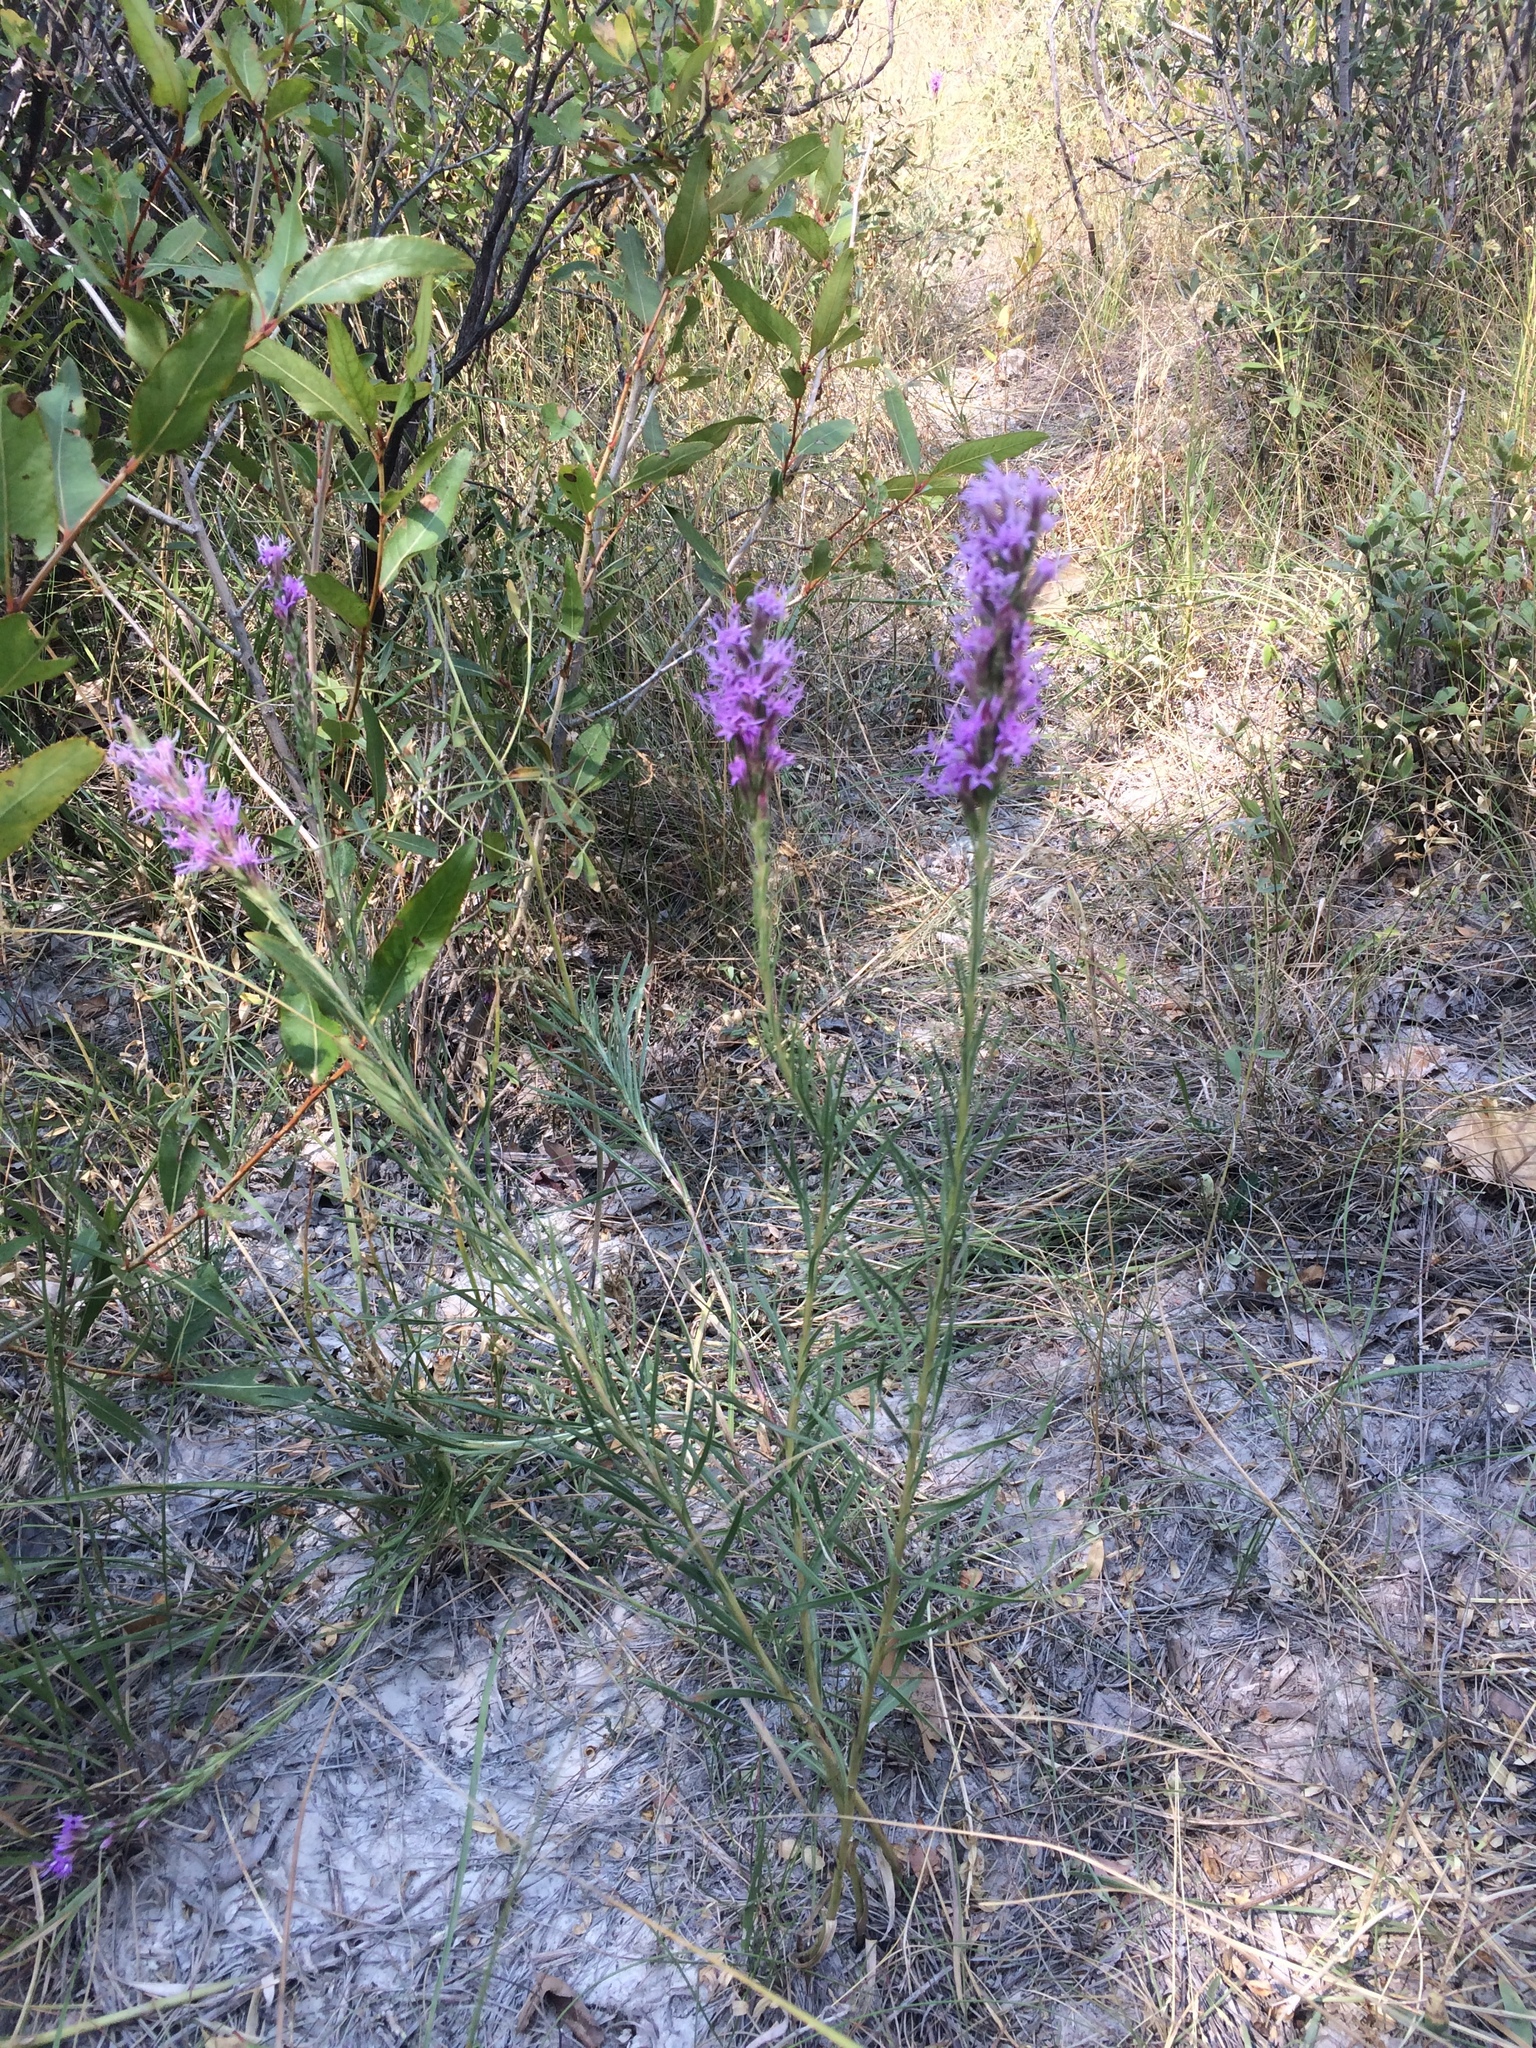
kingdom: Plantae
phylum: Tracheophyta
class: Magnoliopsida
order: Asterales
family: Asteraceae
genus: Liatris
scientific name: Liatris punctata
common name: Dotted gayfeather
